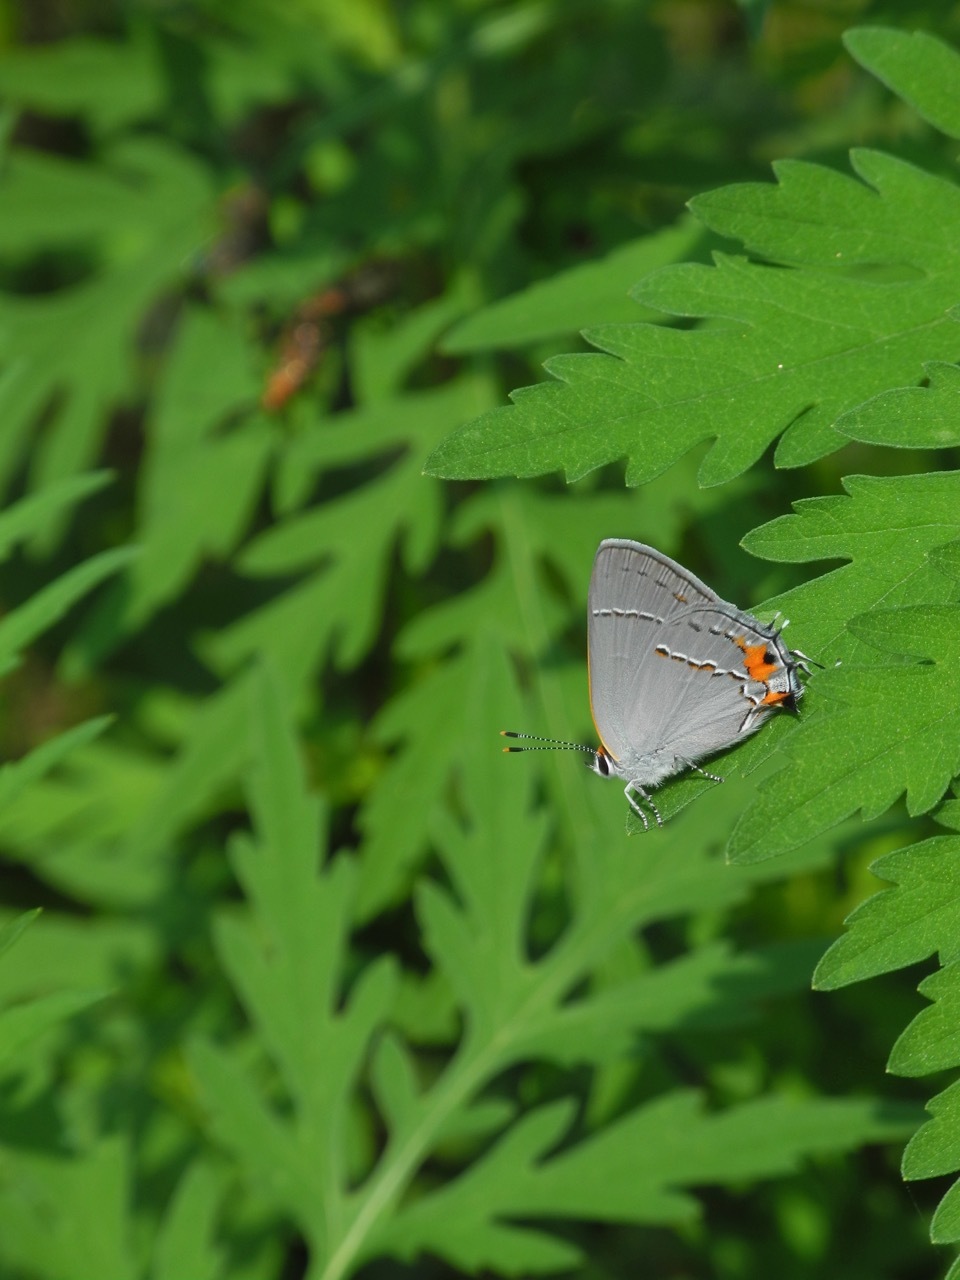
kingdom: Animalia
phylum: Arthropoda
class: Insecta
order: Lepidoptera
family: Lycaenidae
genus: Strymon
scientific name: Strymon melinus
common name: Gray hairstreak
